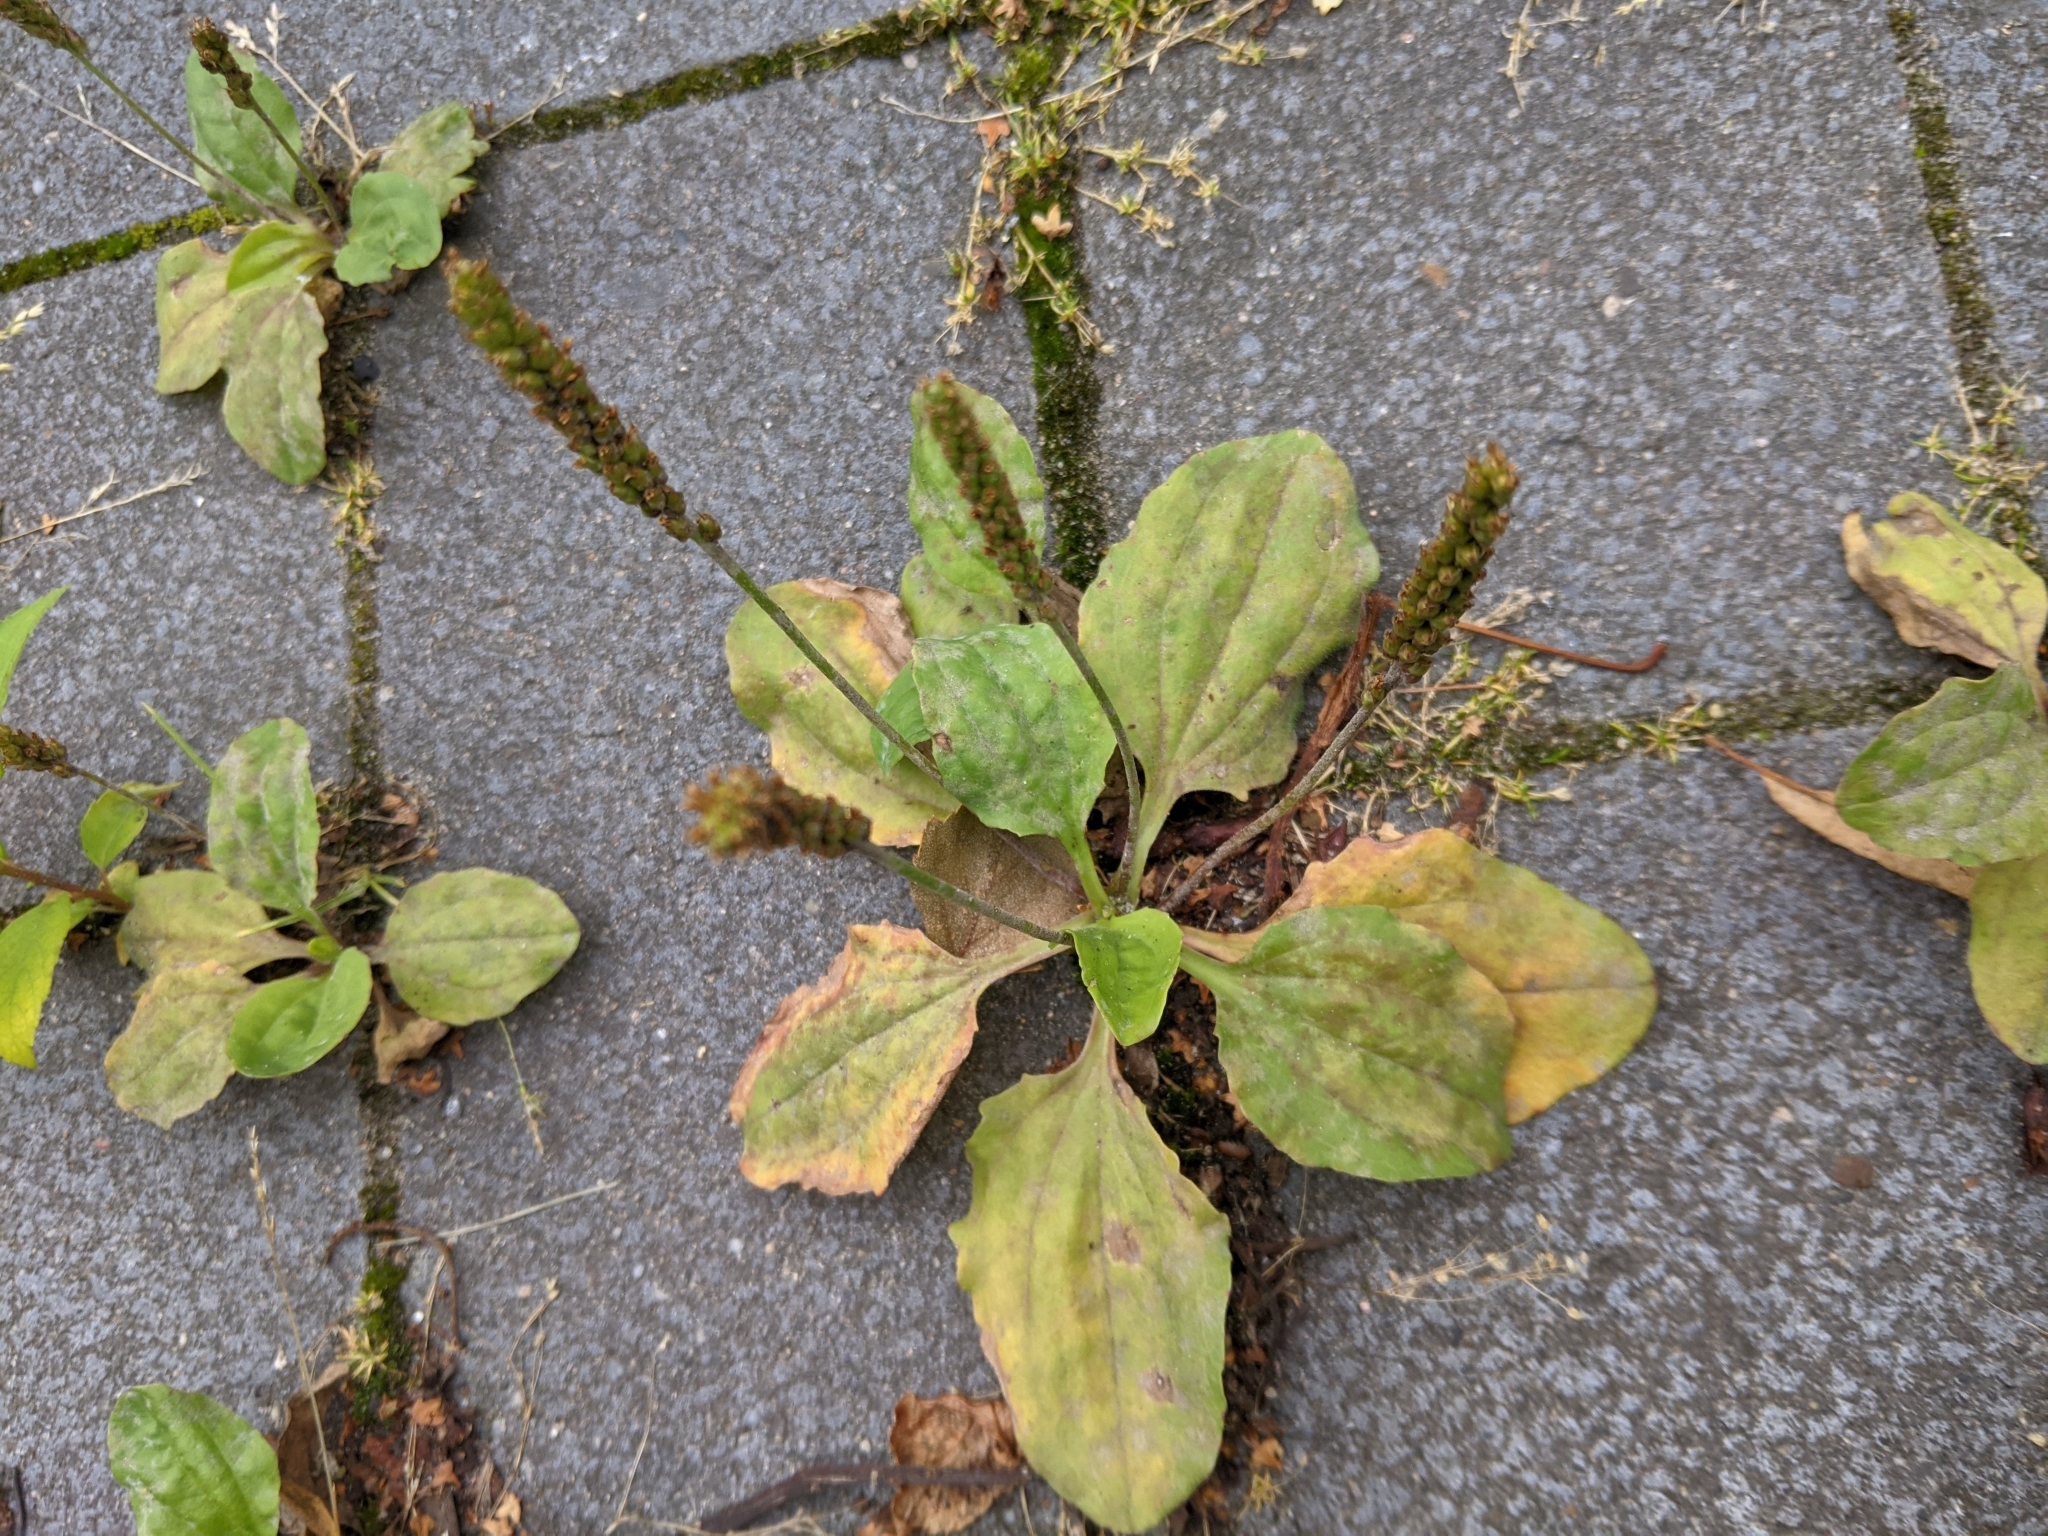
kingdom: Plantae
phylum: Tracheophyta
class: Magnoliopsida
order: Lamiales
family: Plantaginaceae
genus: Plantago
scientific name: Plantago major
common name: Common plantain
